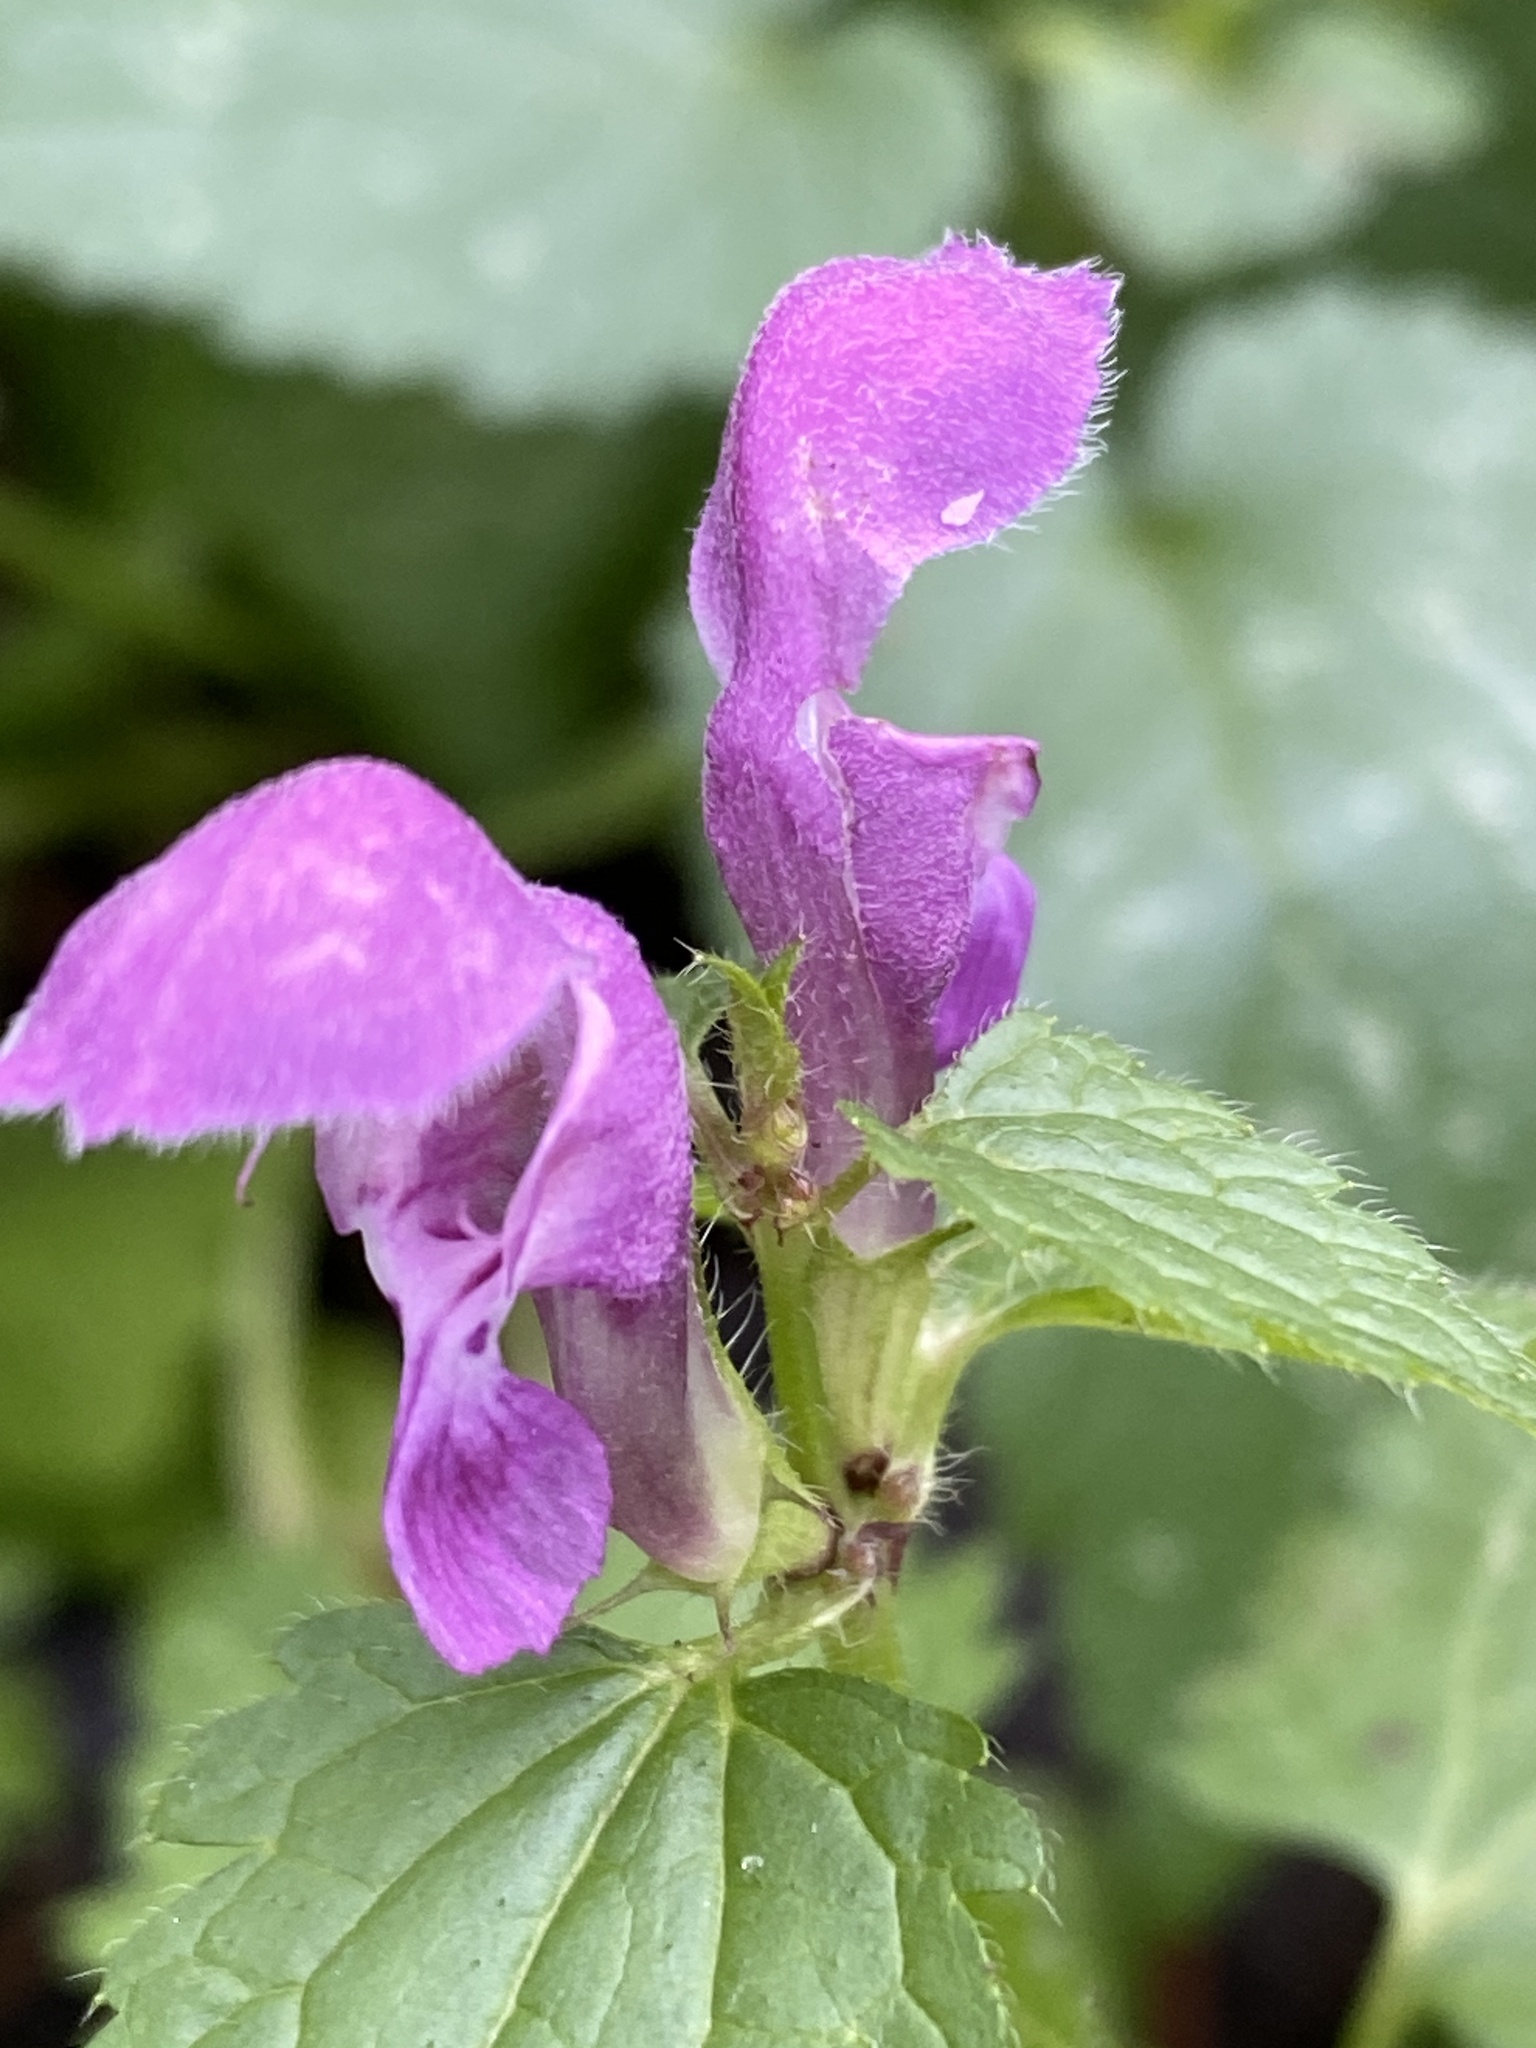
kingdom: Plantae
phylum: Tracheophyta
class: Magnoliopsida
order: Lamiales
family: Lamiaceae
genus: Lamium
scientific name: Lamium maculatum
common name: Spotted dead-nettle
